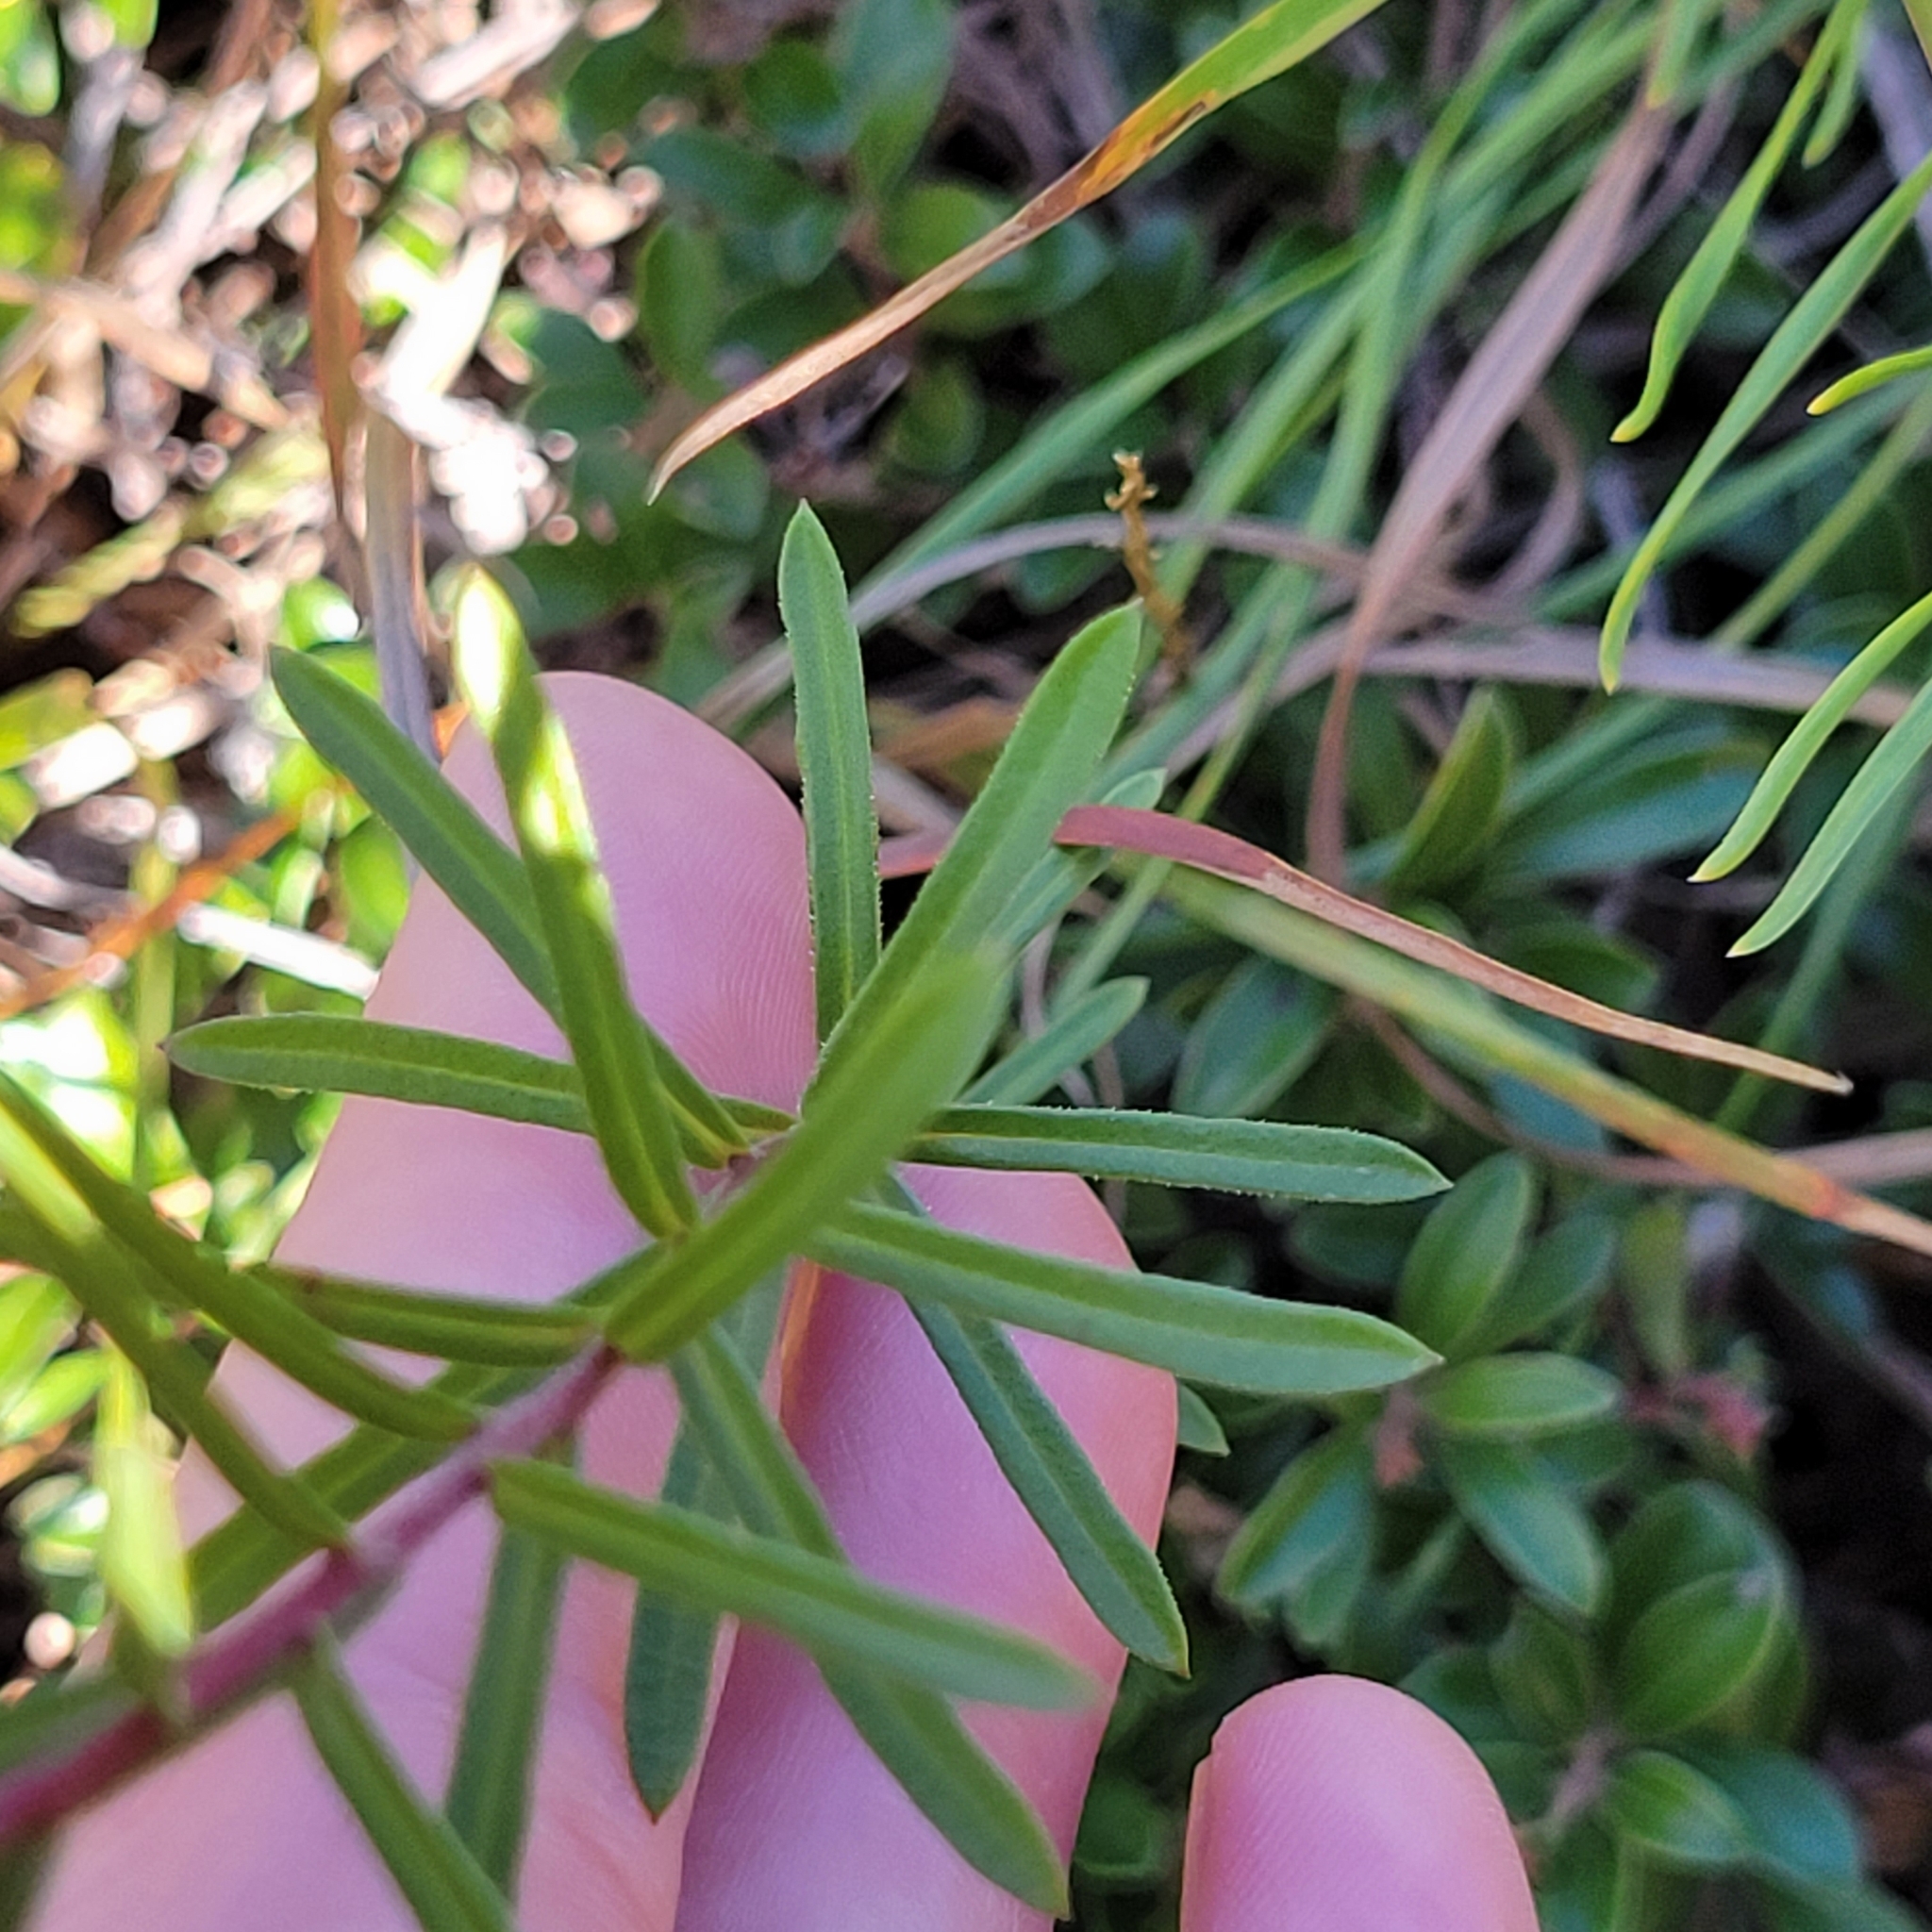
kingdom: Plantae
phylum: Tracheophyta
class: Magnoliopsida
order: Asterales
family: Asteraceae
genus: Ionactis
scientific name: Ionactis linariifolia
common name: Flax-leaf aster
